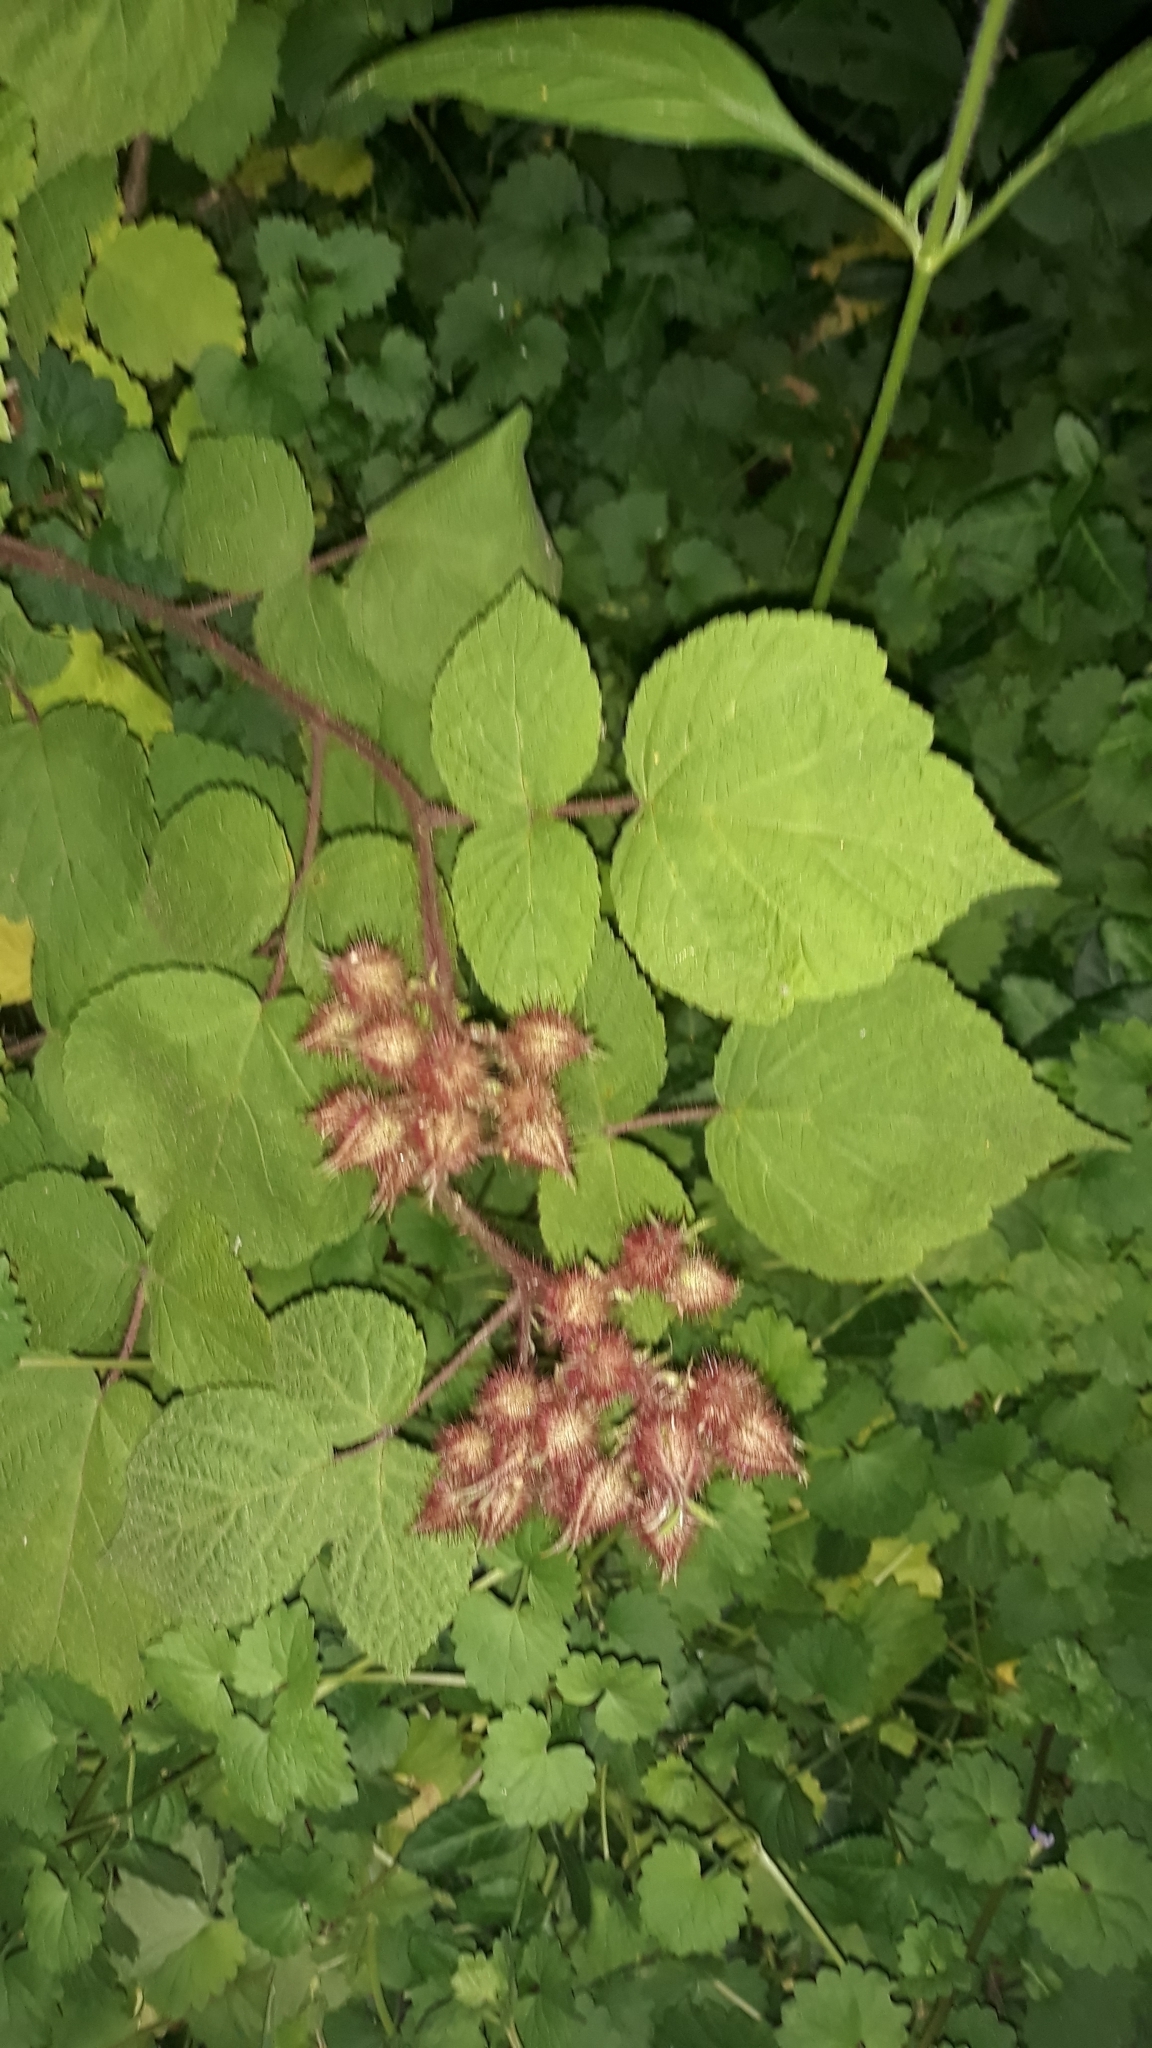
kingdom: Plantae
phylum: Tracheophyta
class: Magnoliopsida
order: Rosales
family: Rosaceae
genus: Rubus
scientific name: Rubus phoenicolasius
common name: Japanese wineberry
